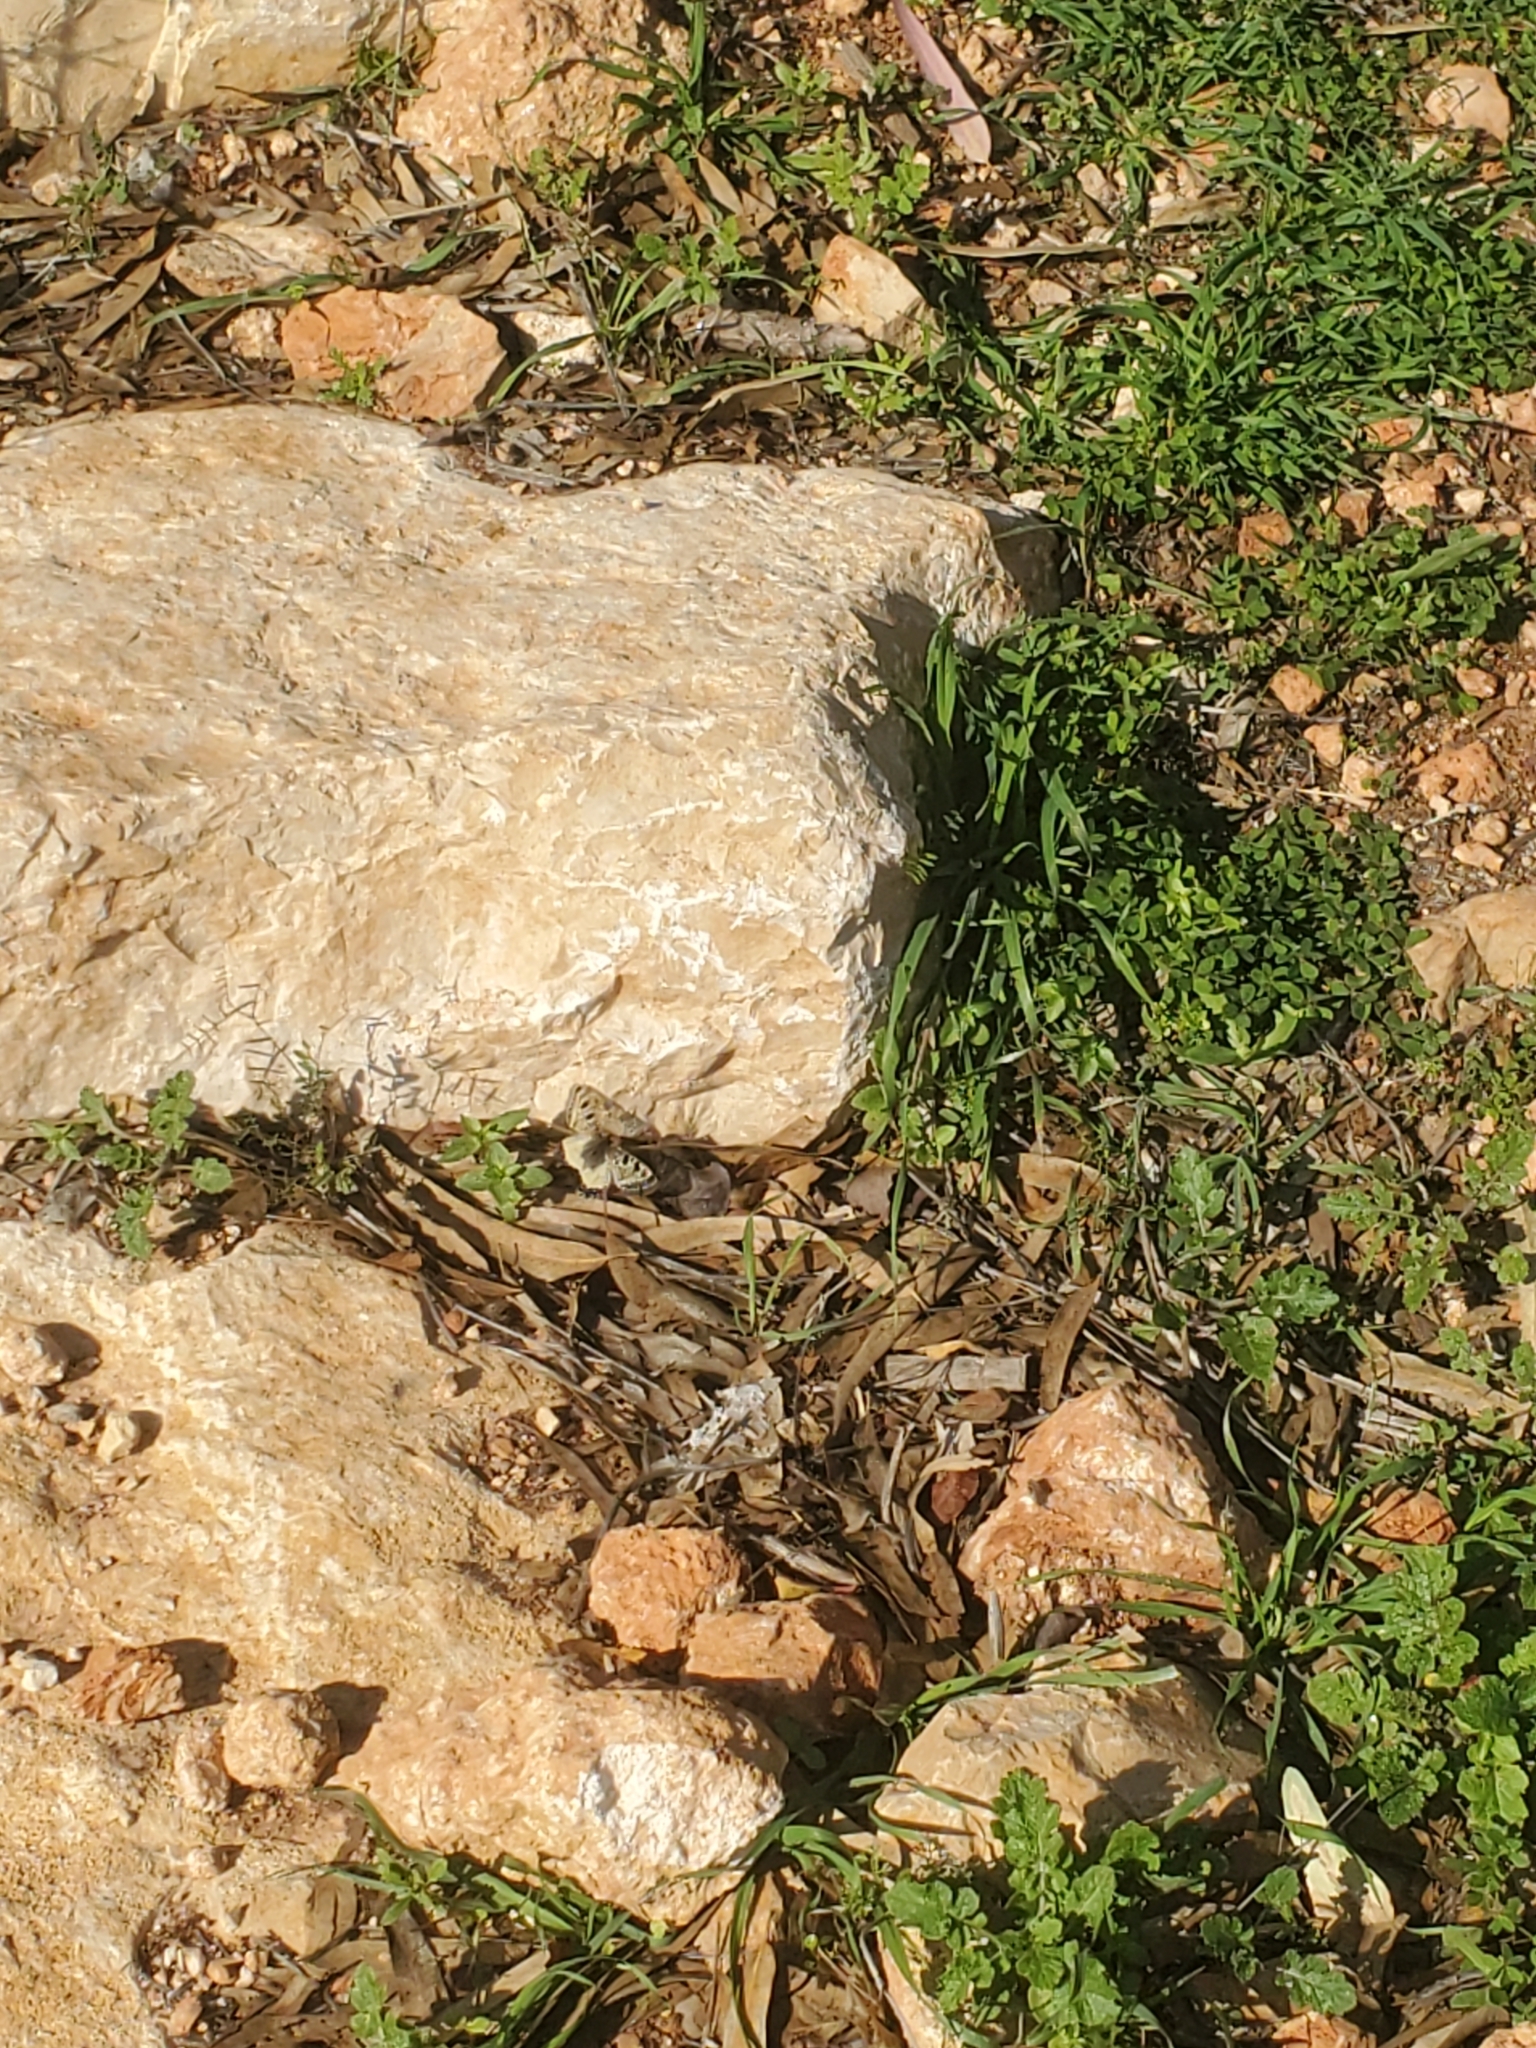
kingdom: Animalia
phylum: Arthropoda
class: Insecta
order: Lepidoptera
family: Papilionidae
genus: Archon
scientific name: Archon apollinus
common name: False apollo
